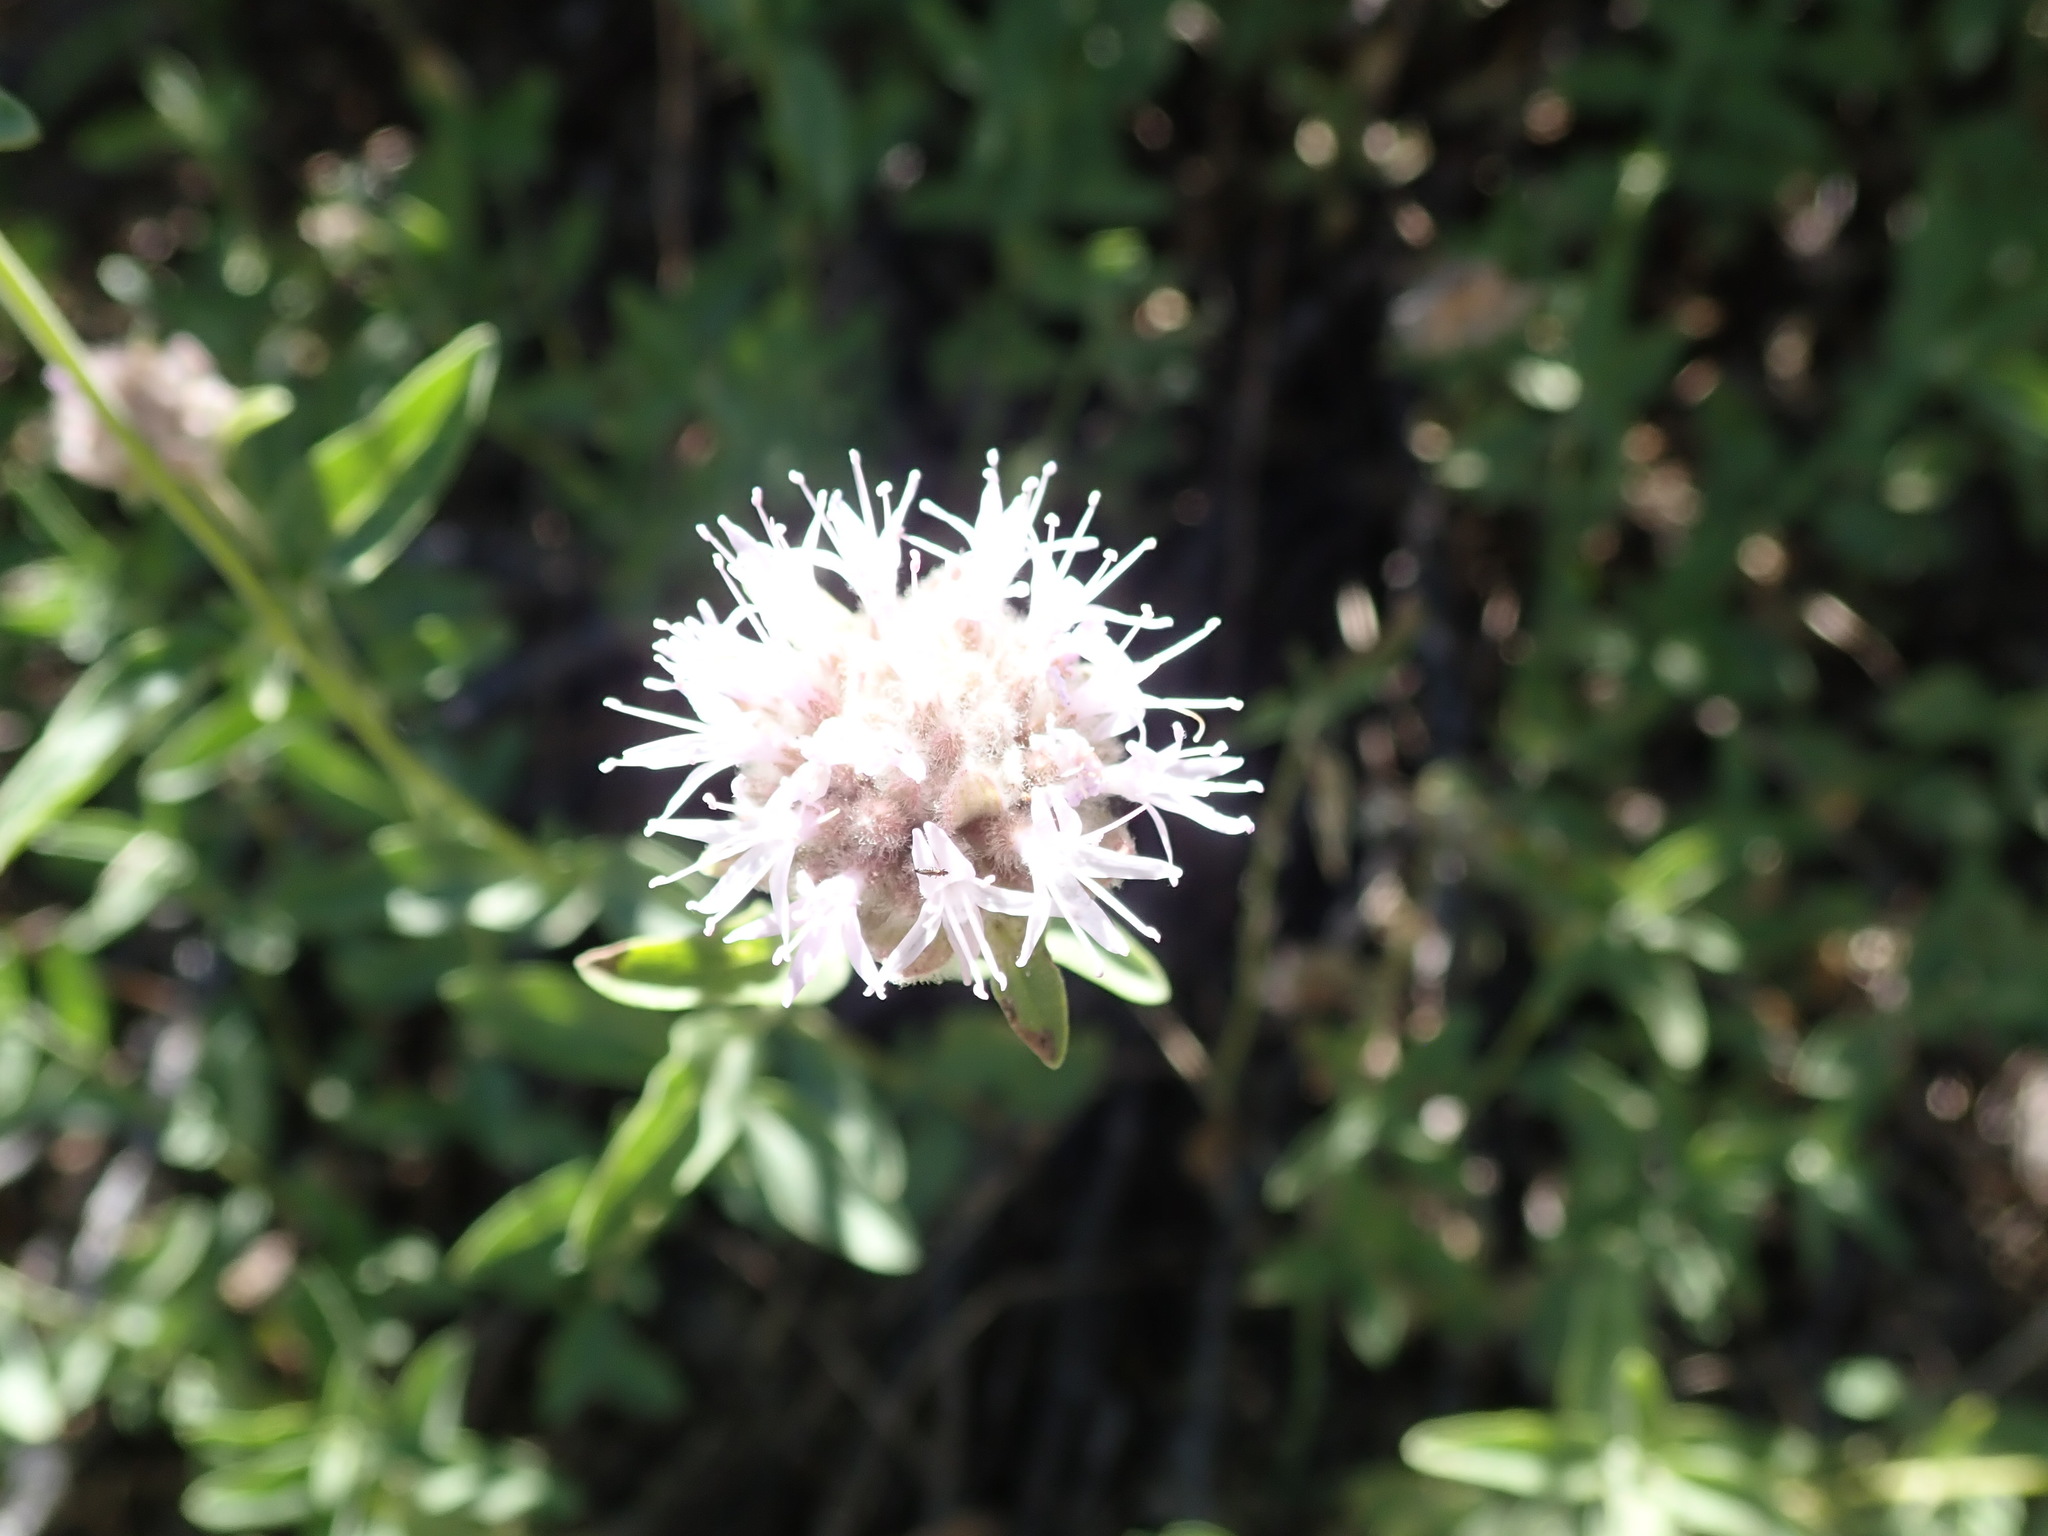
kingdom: Plantae
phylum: Tracheophyta
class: Magnoliopsida
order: Lamiales
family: Lamiaceae
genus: Monardella
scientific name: Monardella odoratissima
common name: Pacific monardella
